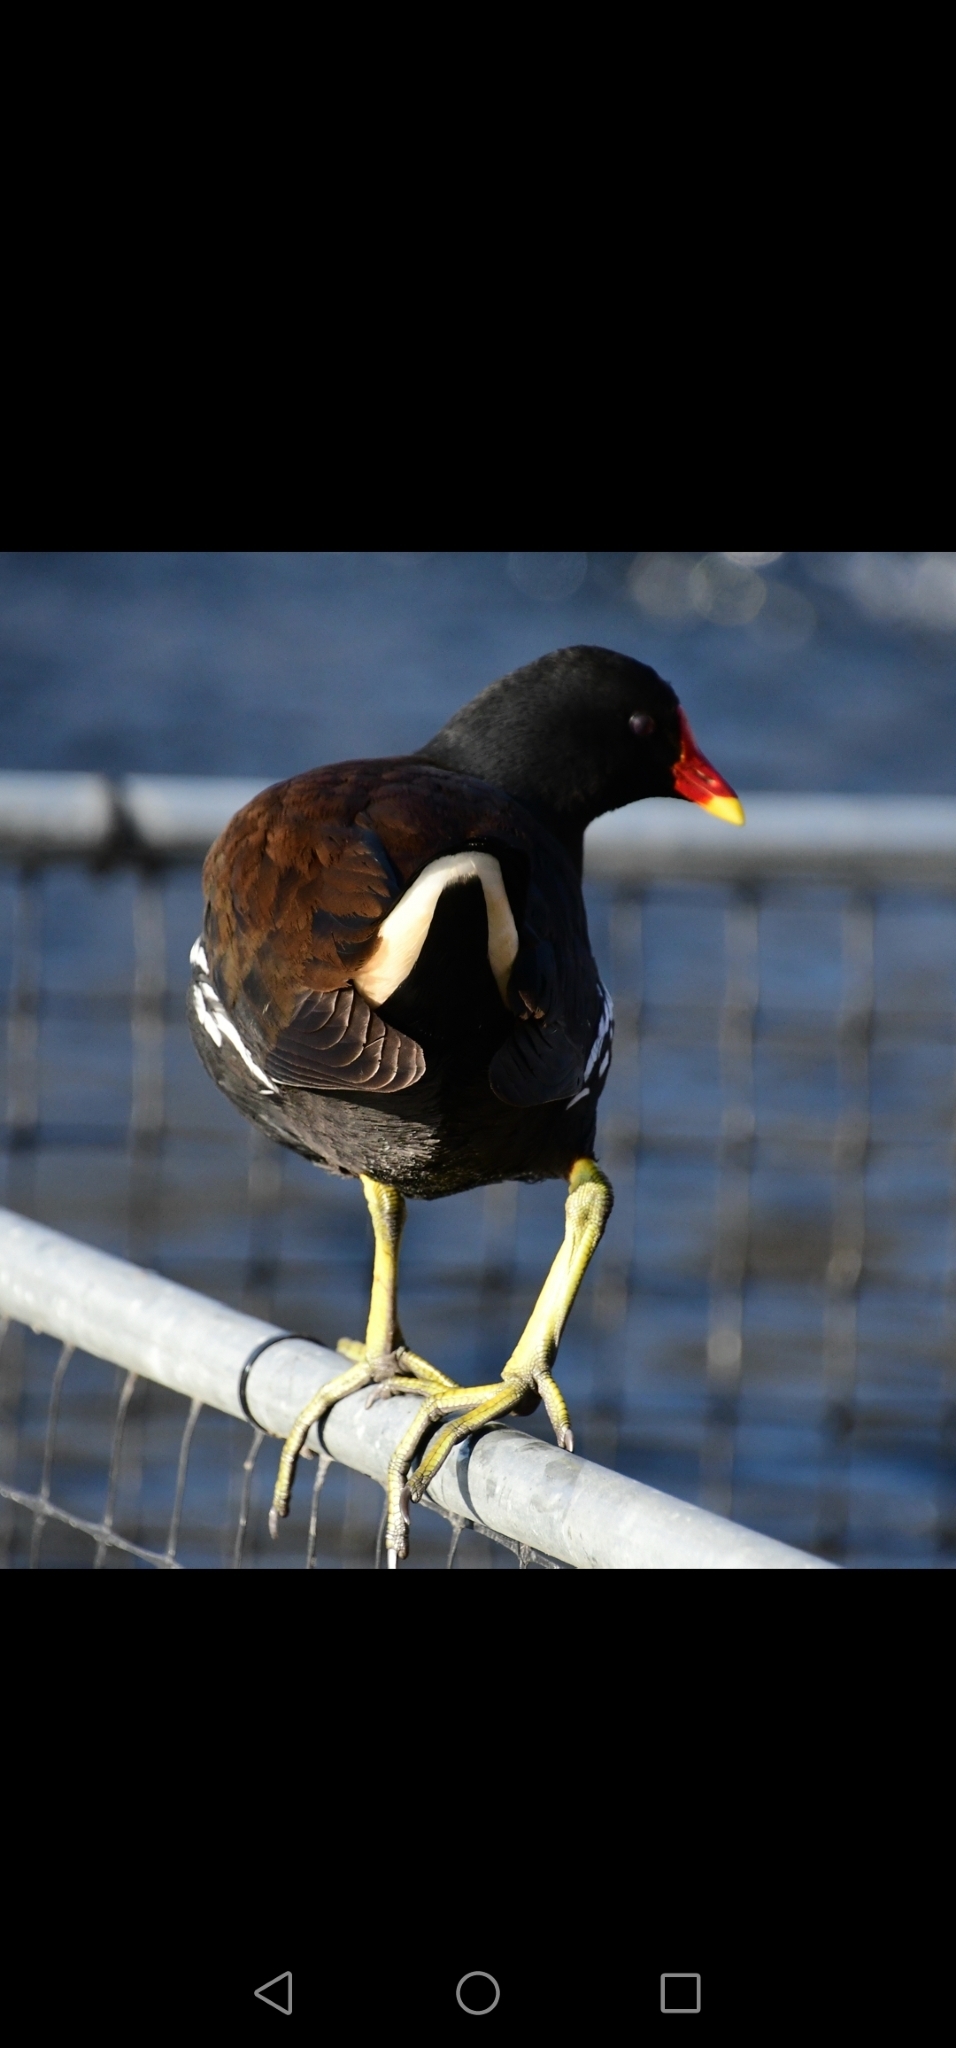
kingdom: Animalia
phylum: Chordata
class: Aves
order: Gruiformes
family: Rallidae
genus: Gallinula
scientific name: Gallinula chloropus
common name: Common moorhen
